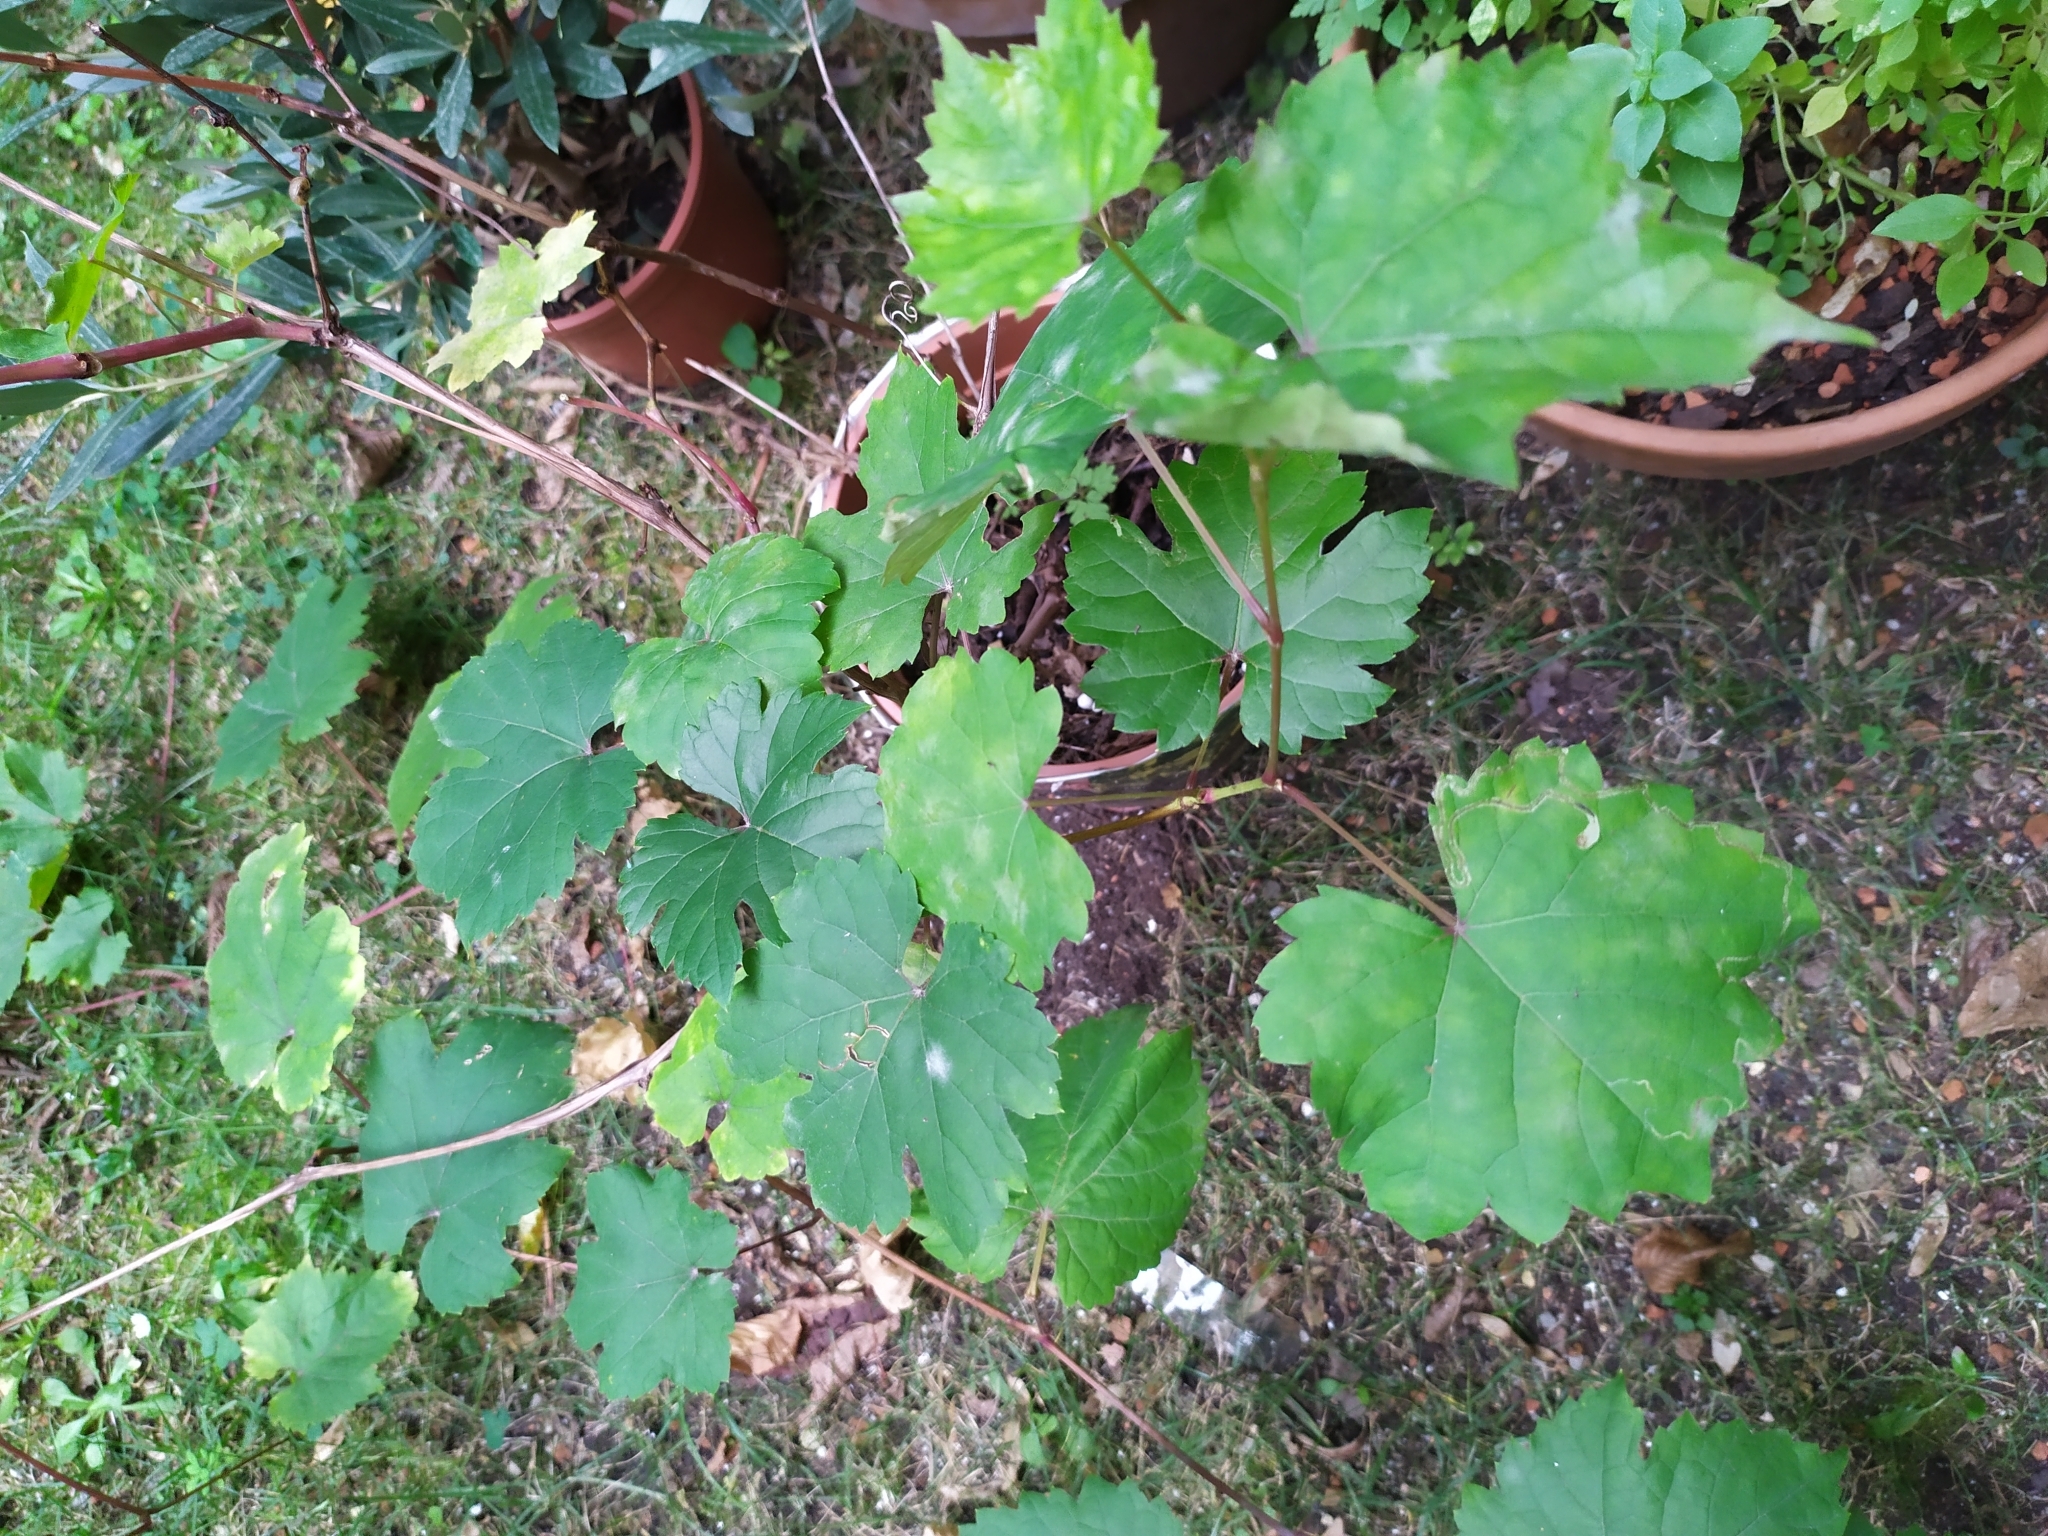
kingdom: Fungi
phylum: Ascomycota
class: Leotiomycetes
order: Helotiales
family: Erysiphaceae
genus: Erysiphe
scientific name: Erysiphe necator
